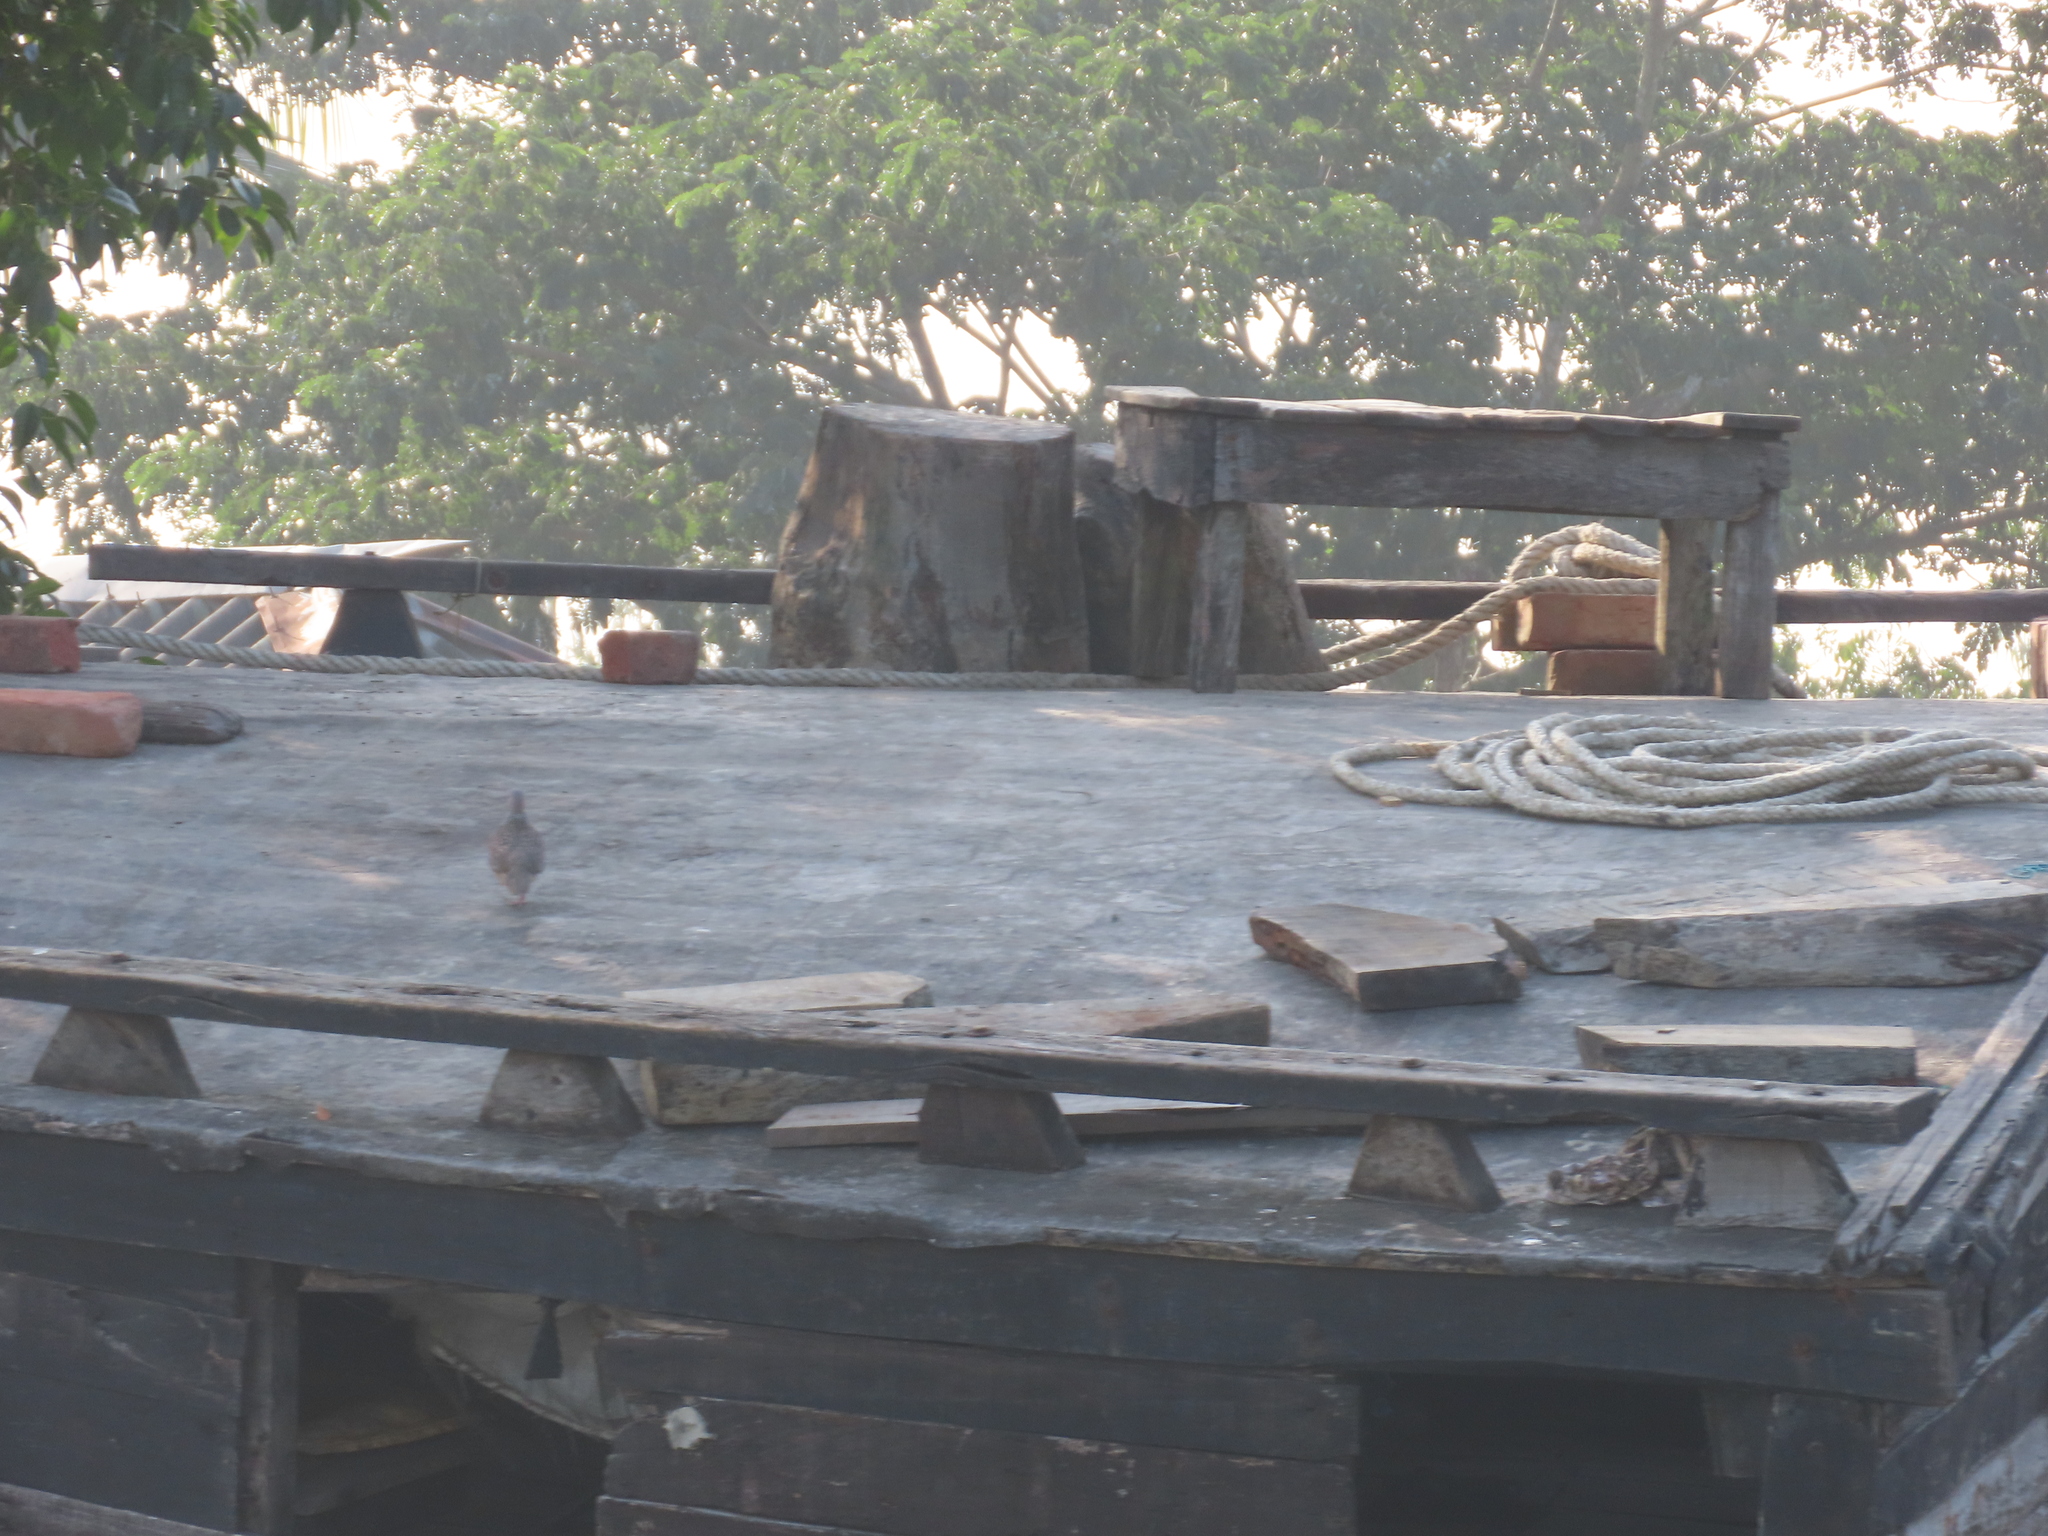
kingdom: Animalia
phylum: Chordata
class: Aves
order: Columbiformes
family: Columbidae
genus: Spilopelia
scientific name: Spilopelia chinensis
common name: Spotted dove
